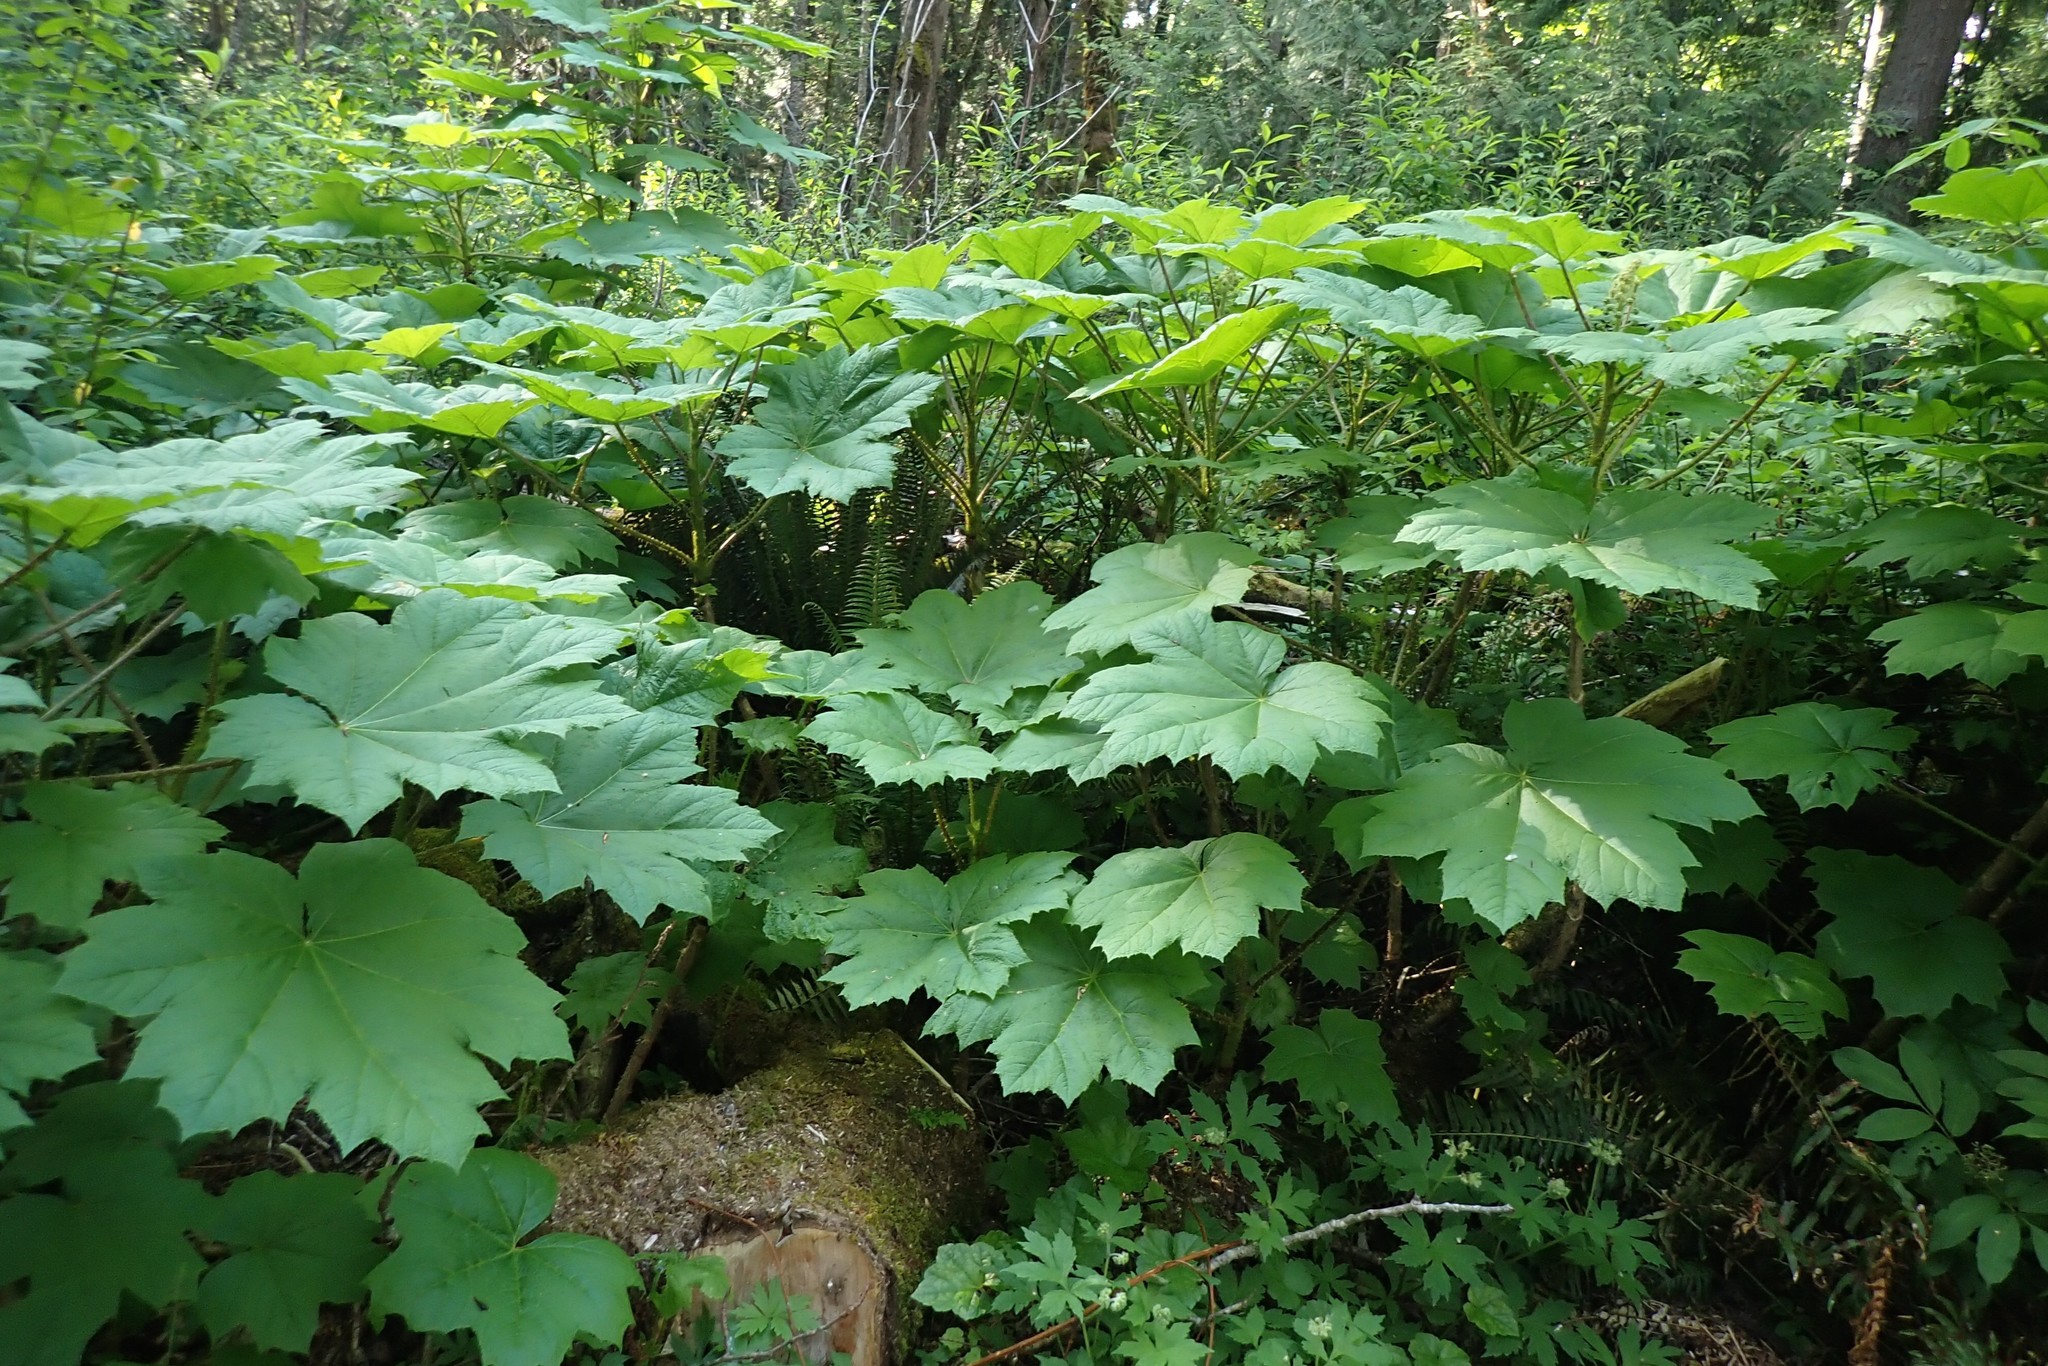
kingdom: Plantae
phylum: Tracheophyta
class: Magnoliopsida
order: Apiales
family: Araliaceae
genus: Oplopanax
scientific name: Oplopanax horridus
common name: Devil's walking-stick
